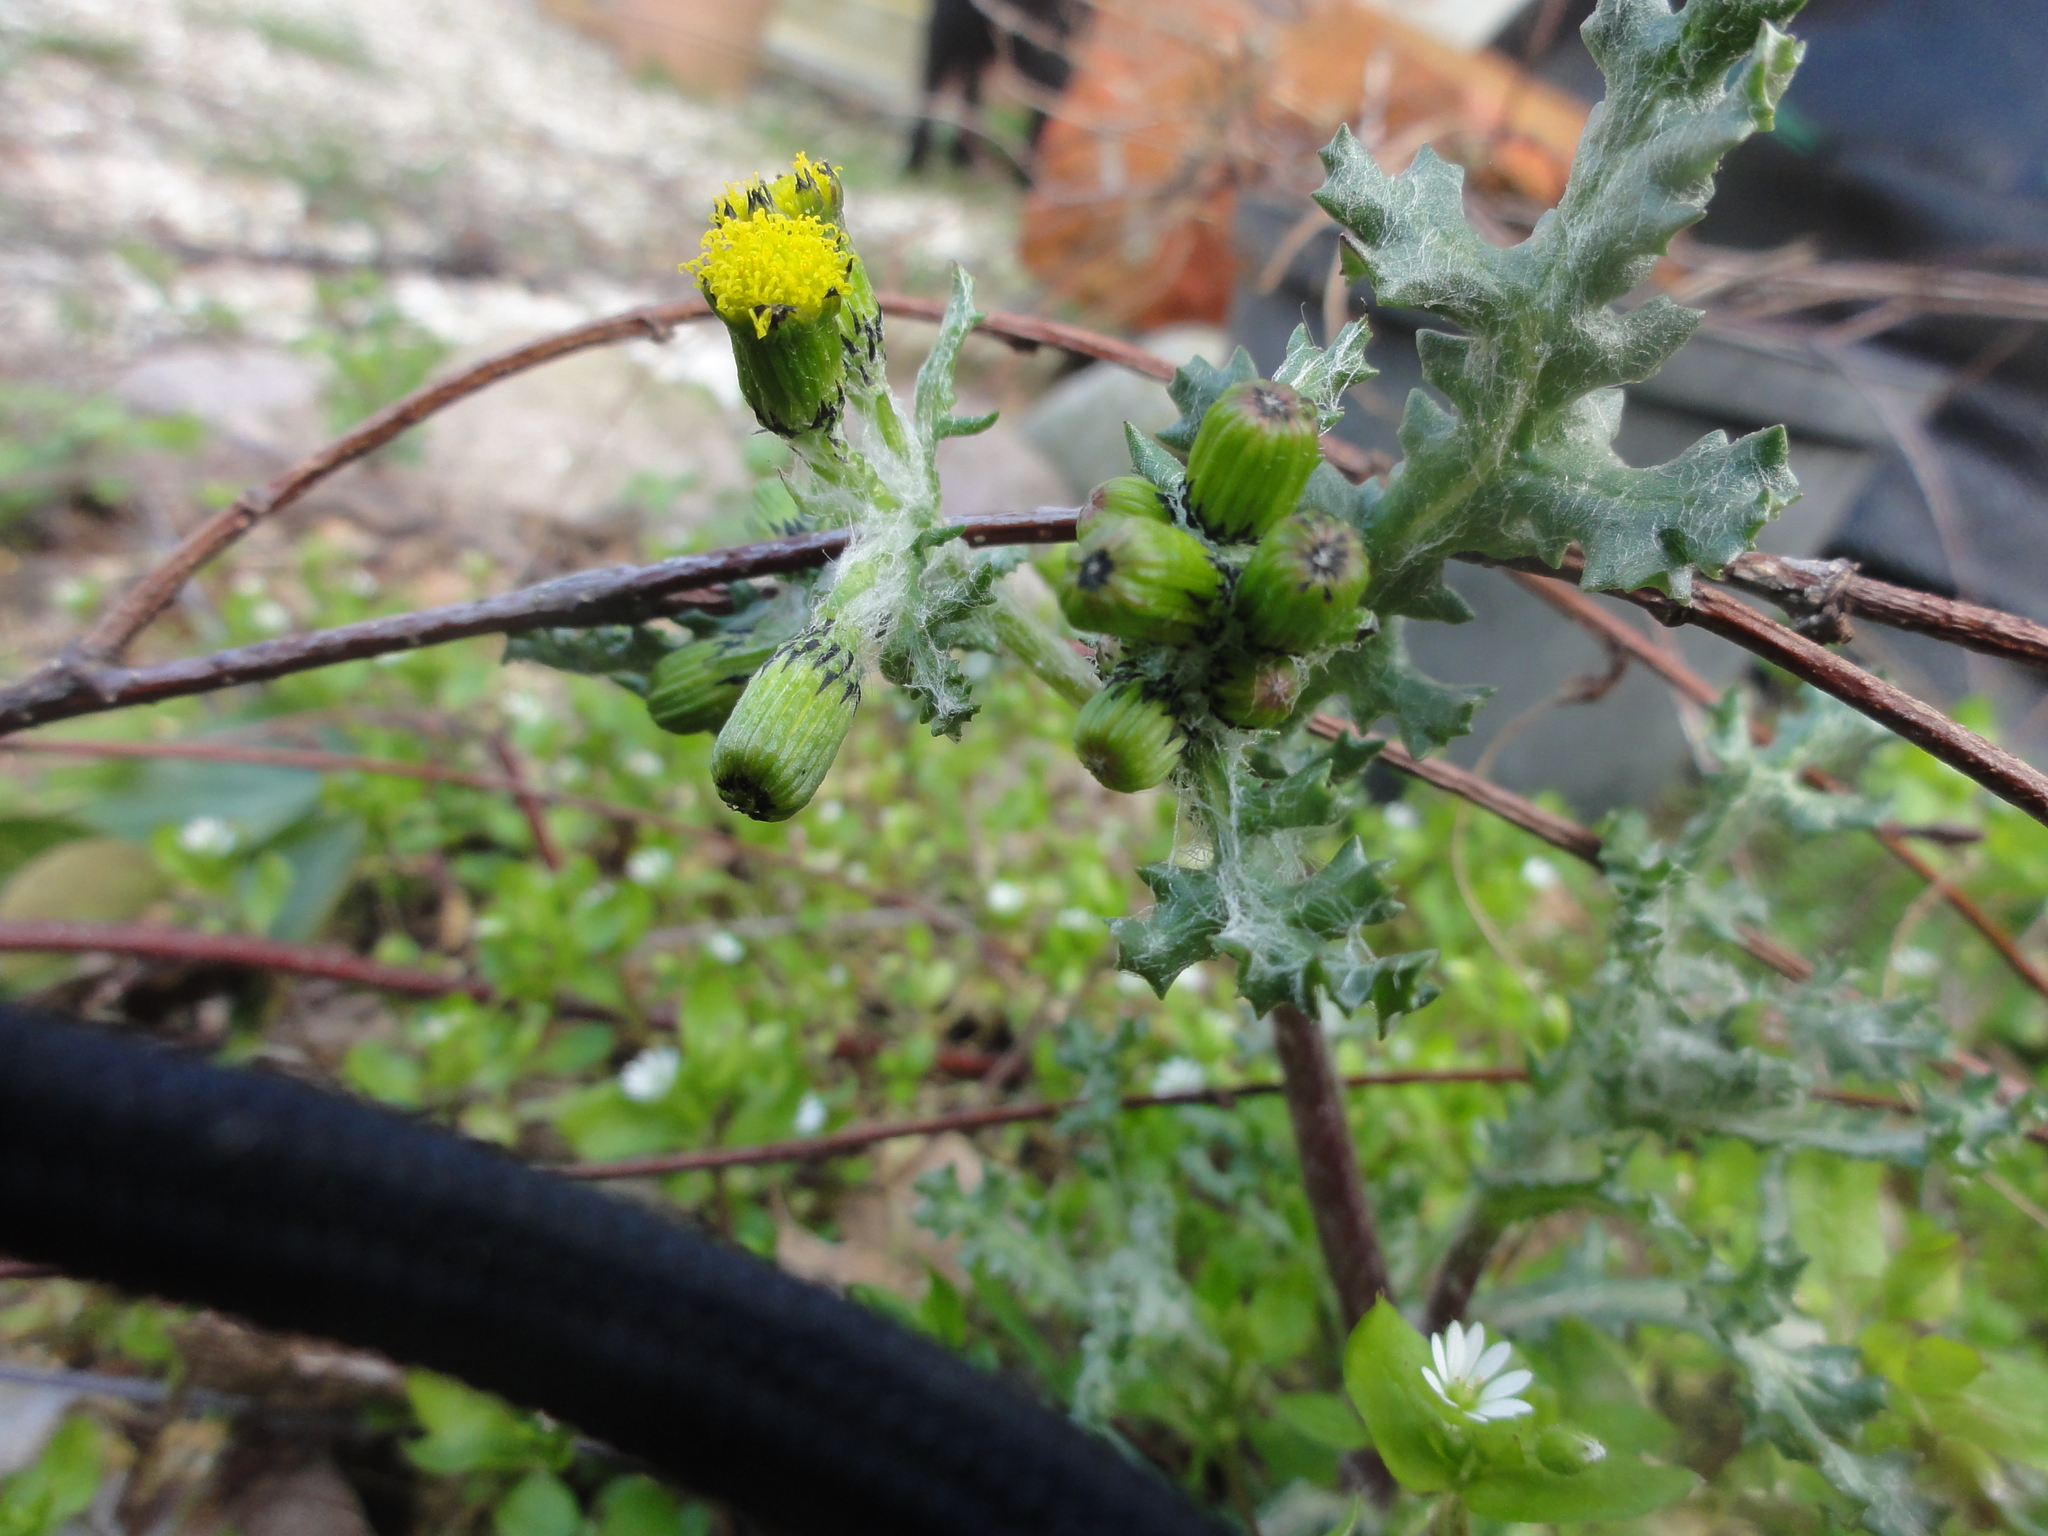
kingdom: Plantae
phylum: Tracheophyta
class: Magnoliopsida
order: Asterales
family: Asteraceae
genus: Senecio
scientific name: Senecio vulgaris
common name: Old-man-in-the-spring
